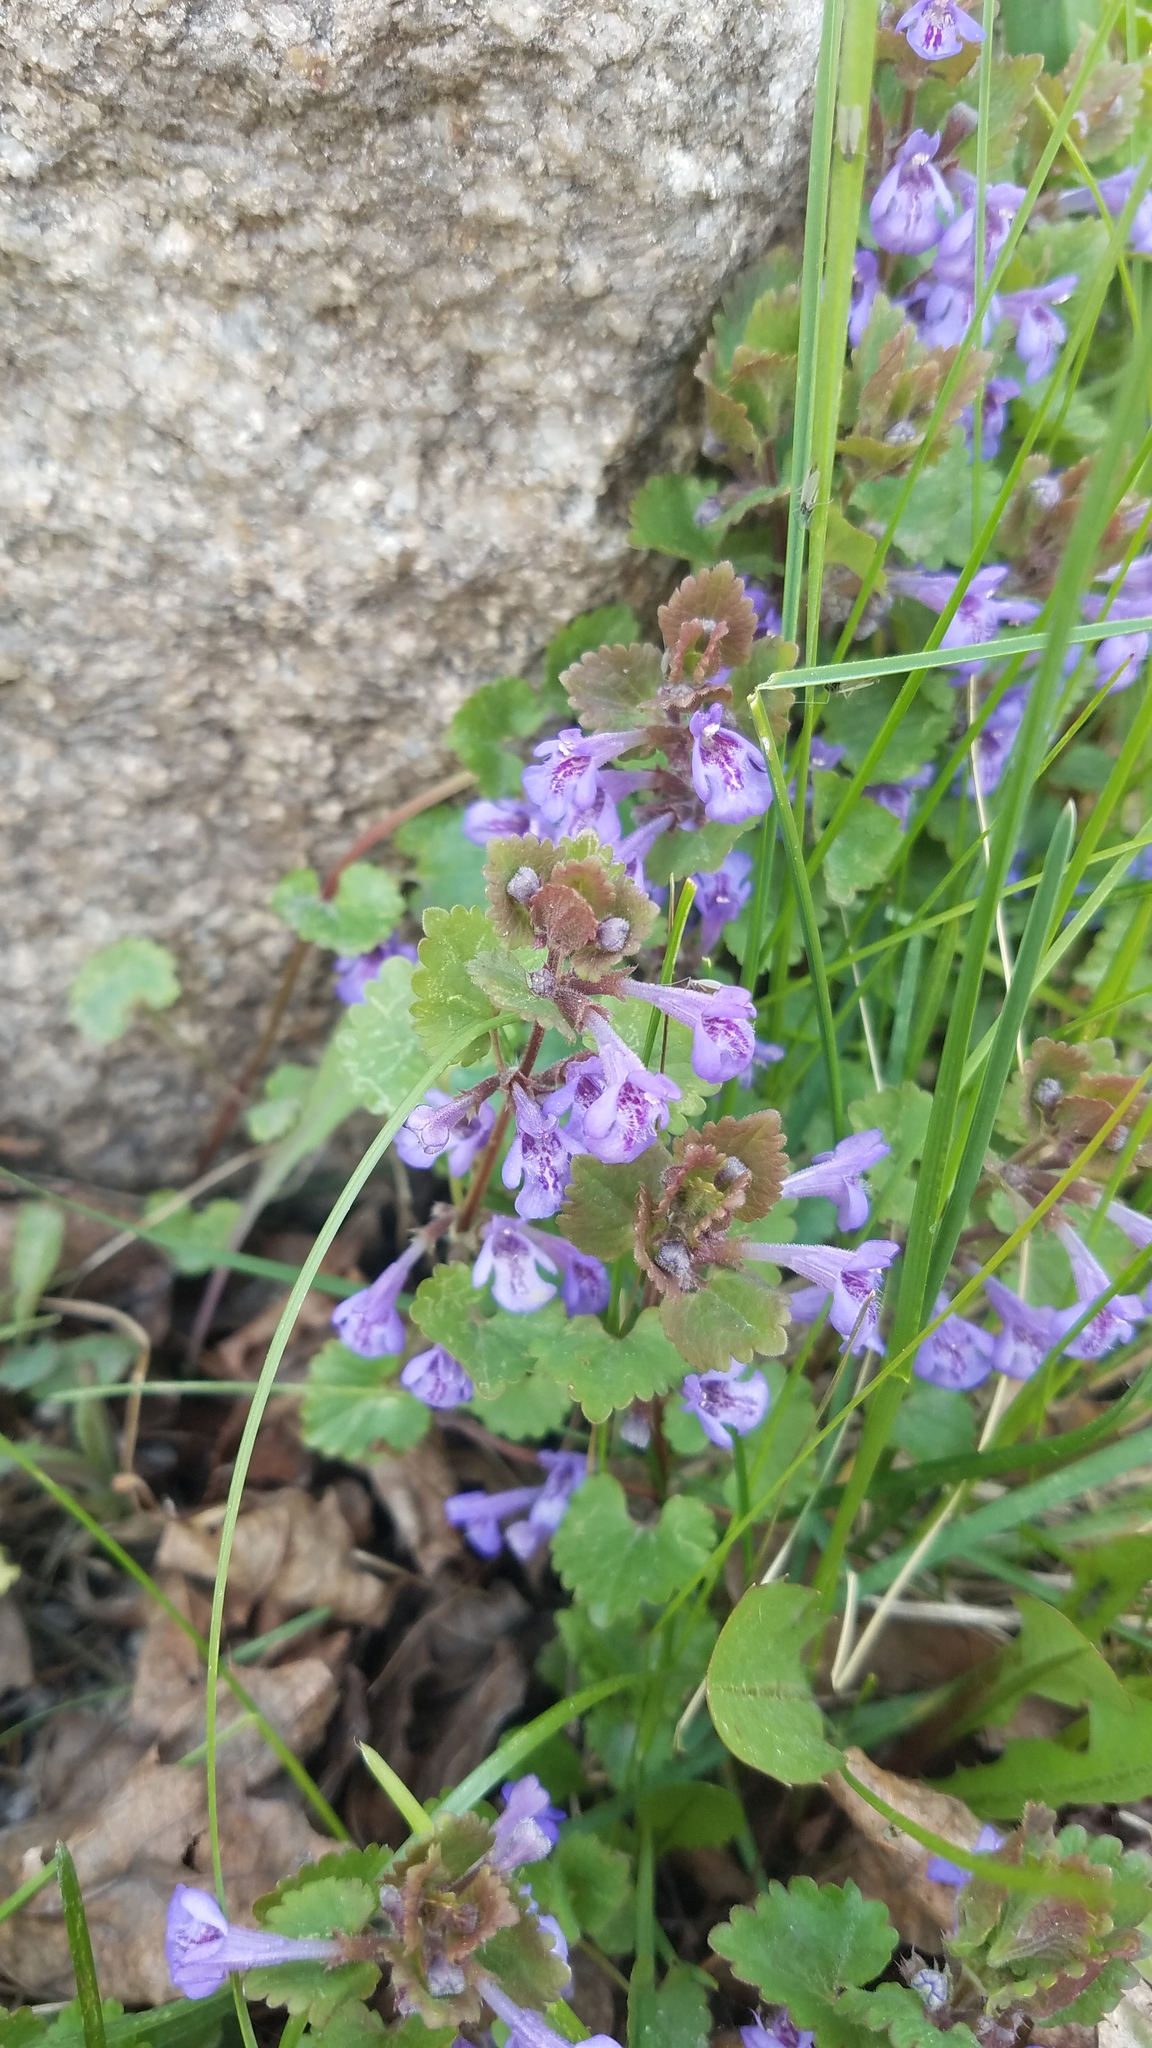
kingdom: Plantae
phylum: Tracheophyta
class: Magnoliopsida
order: Lamiales
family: Lamiaceae
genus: Glechoma
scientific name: Glechoma hederacea
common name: Ground ivy
